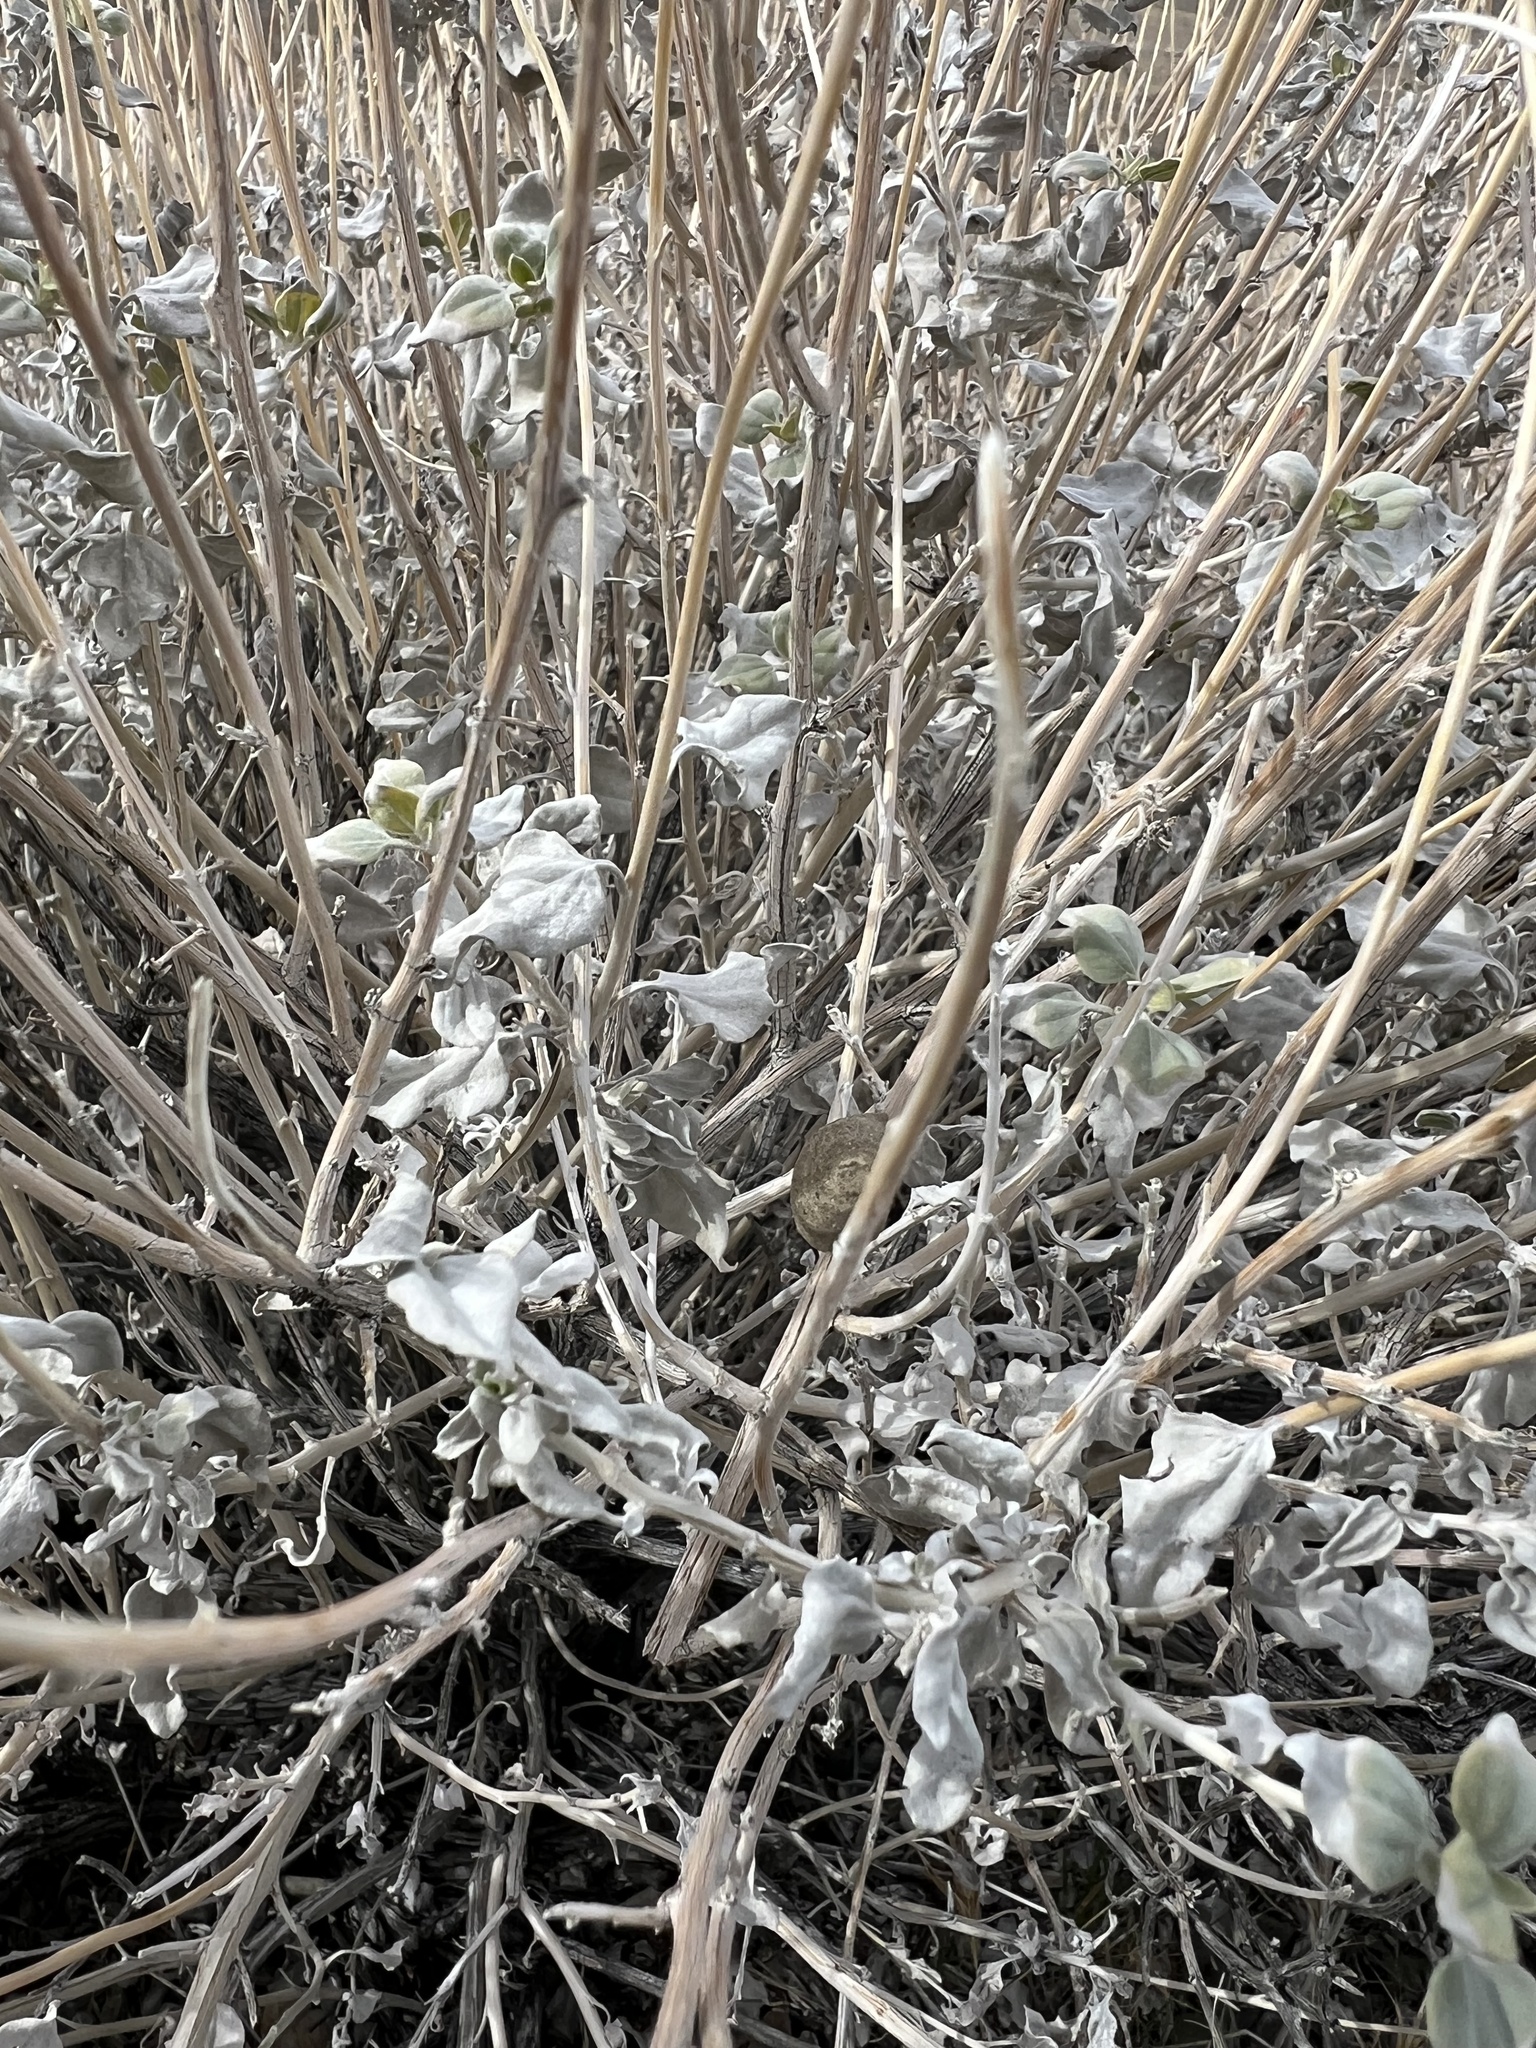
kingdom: Plantae
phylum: Tracheophyta
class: Magnoliopsida
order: Asterales
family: Asteraceae
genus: Encelia
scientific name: Encelia actoni
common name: Acton encelia
